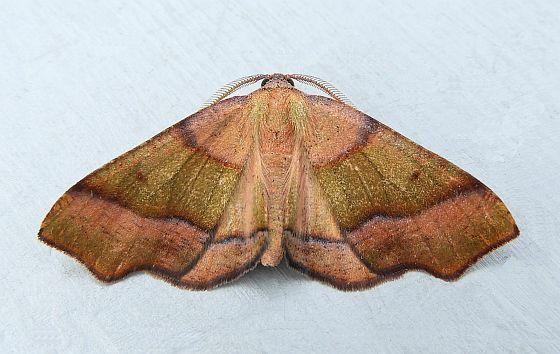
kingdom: Animalia
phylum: Arthropoda
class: Insecta
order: Lepidoptera
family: Geometridae
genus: Plagodis
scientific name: Plagodis phlogosaria
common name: Straight-lined plagodis
